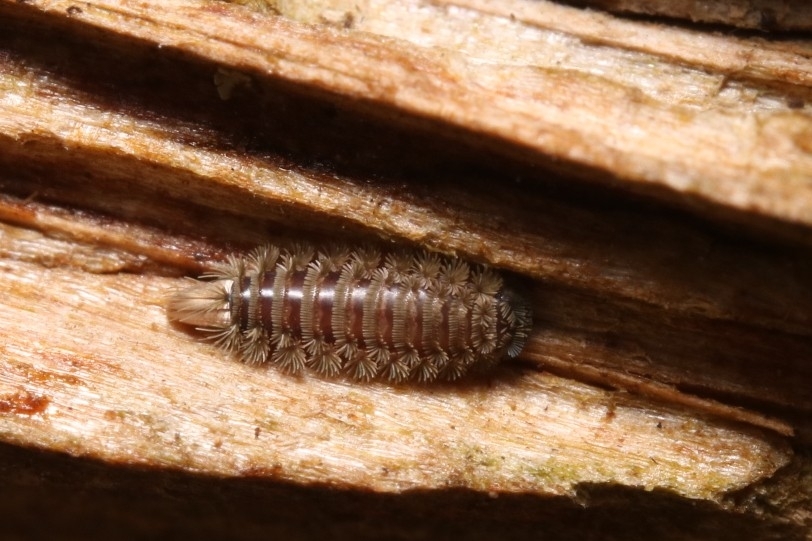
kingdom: Animalia
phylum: Arthropoda
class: Diplopoda
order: Polyxenida
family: Polyxenidae
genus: Polyxenus
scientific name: Polyxenus lagurus
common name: Bristly millipede
